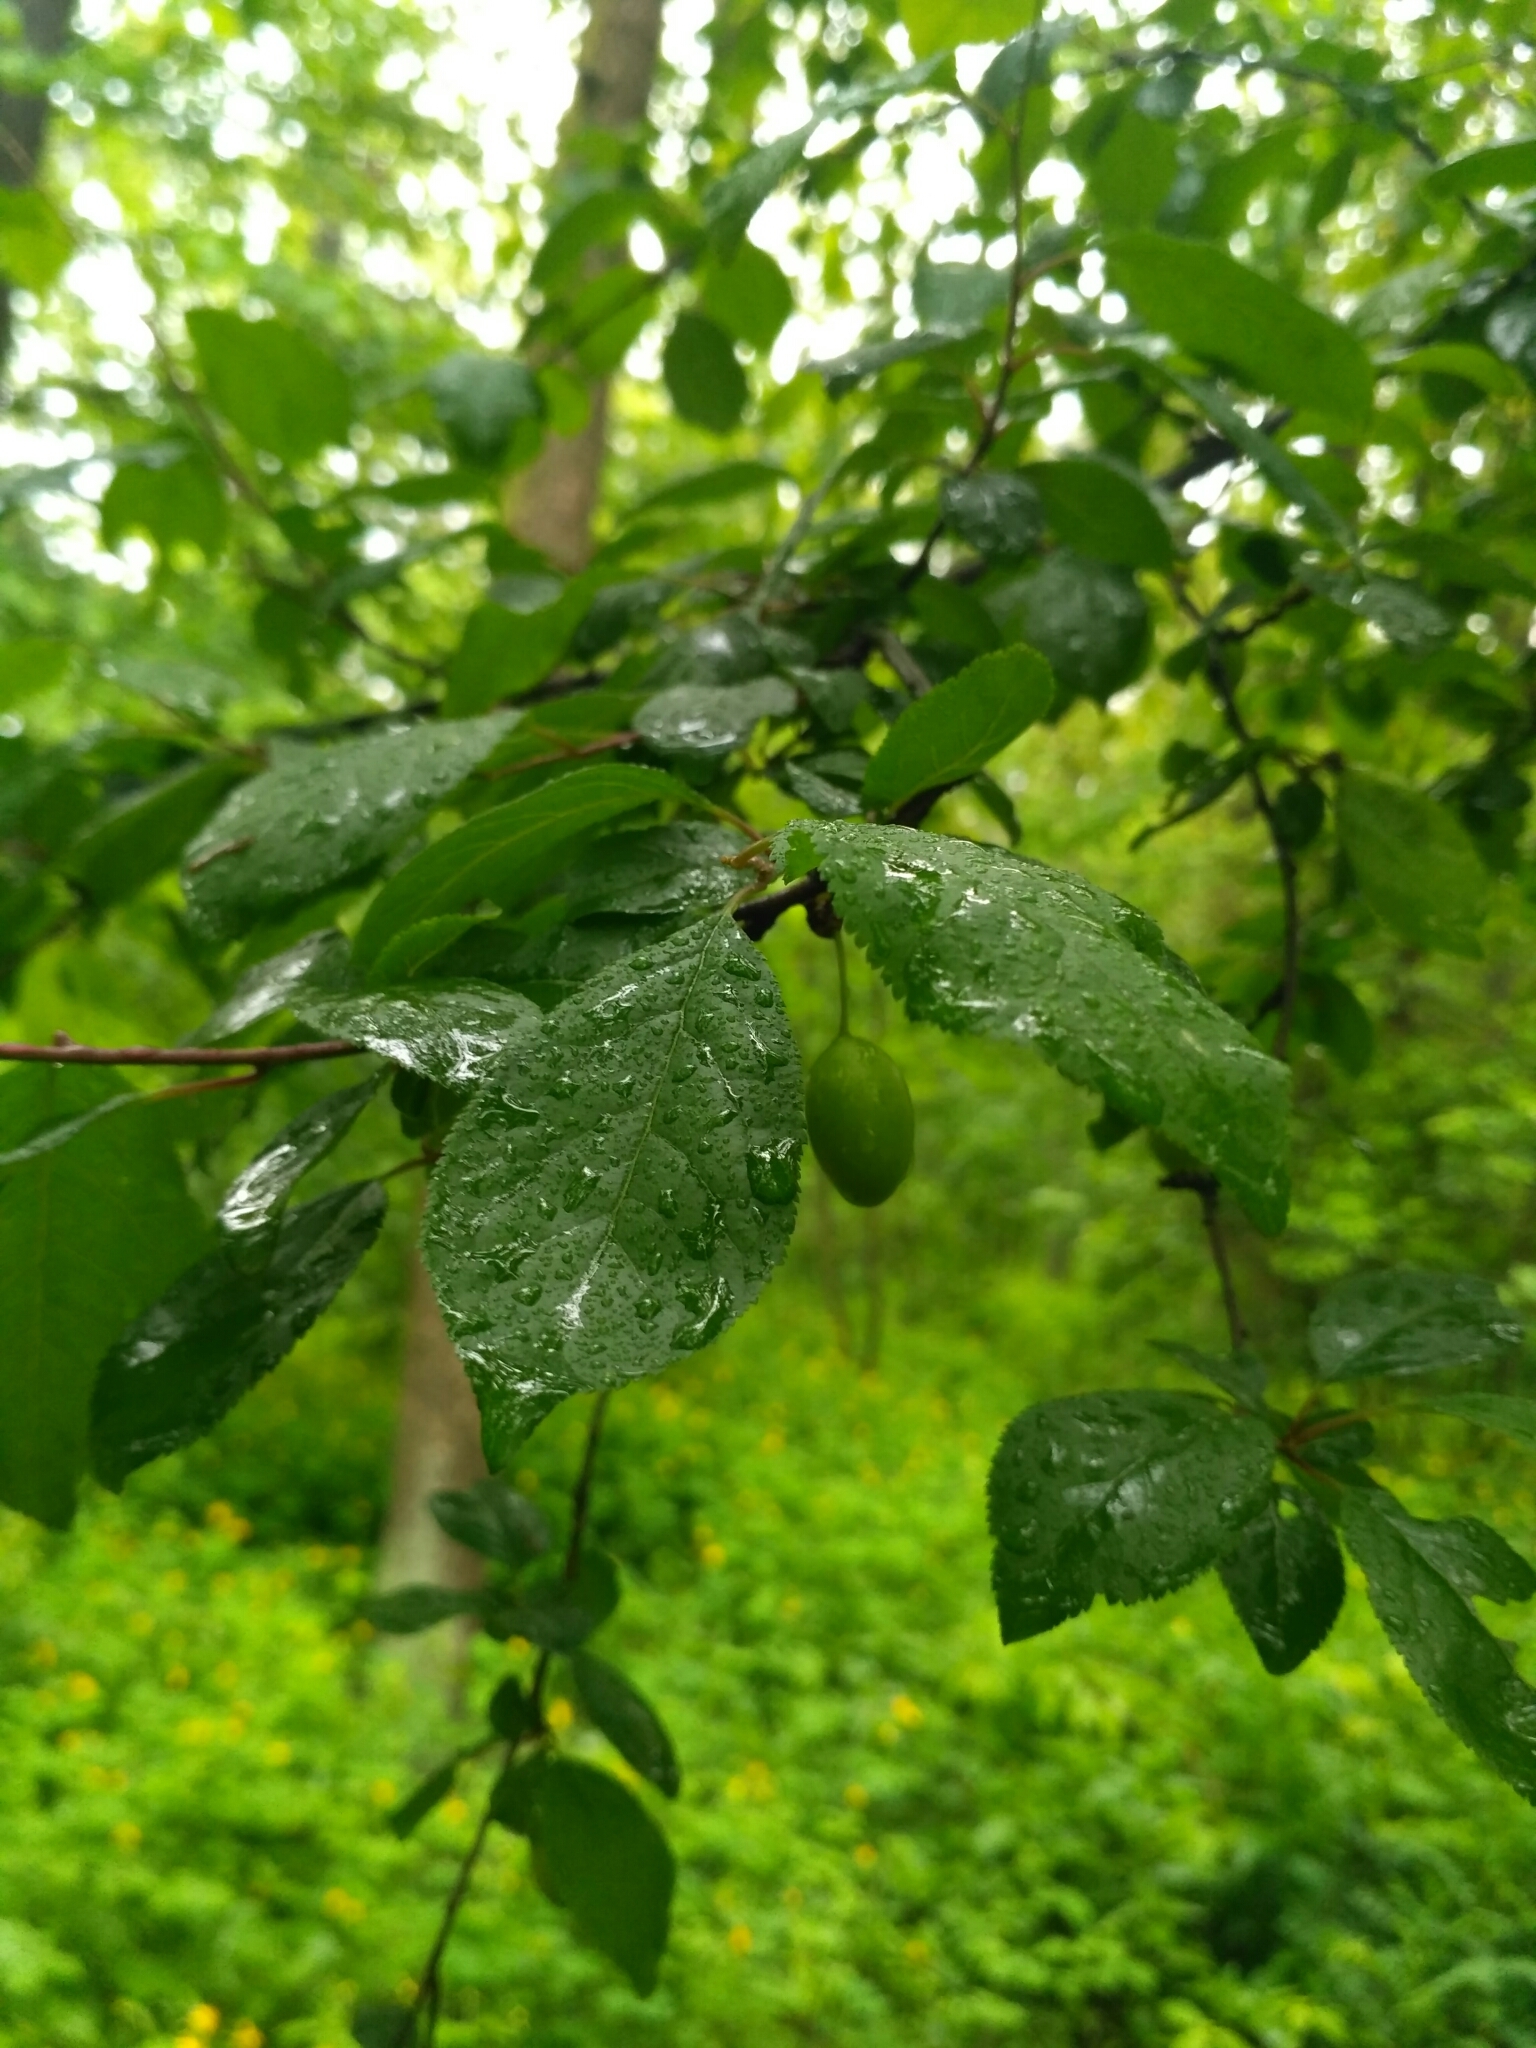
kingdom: Plantae
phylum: Tracheophyta
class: Magnoliopsida
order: Rosales
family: Rosaceae
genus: Prunus
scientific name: Prunus domestica
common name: Wild plum
